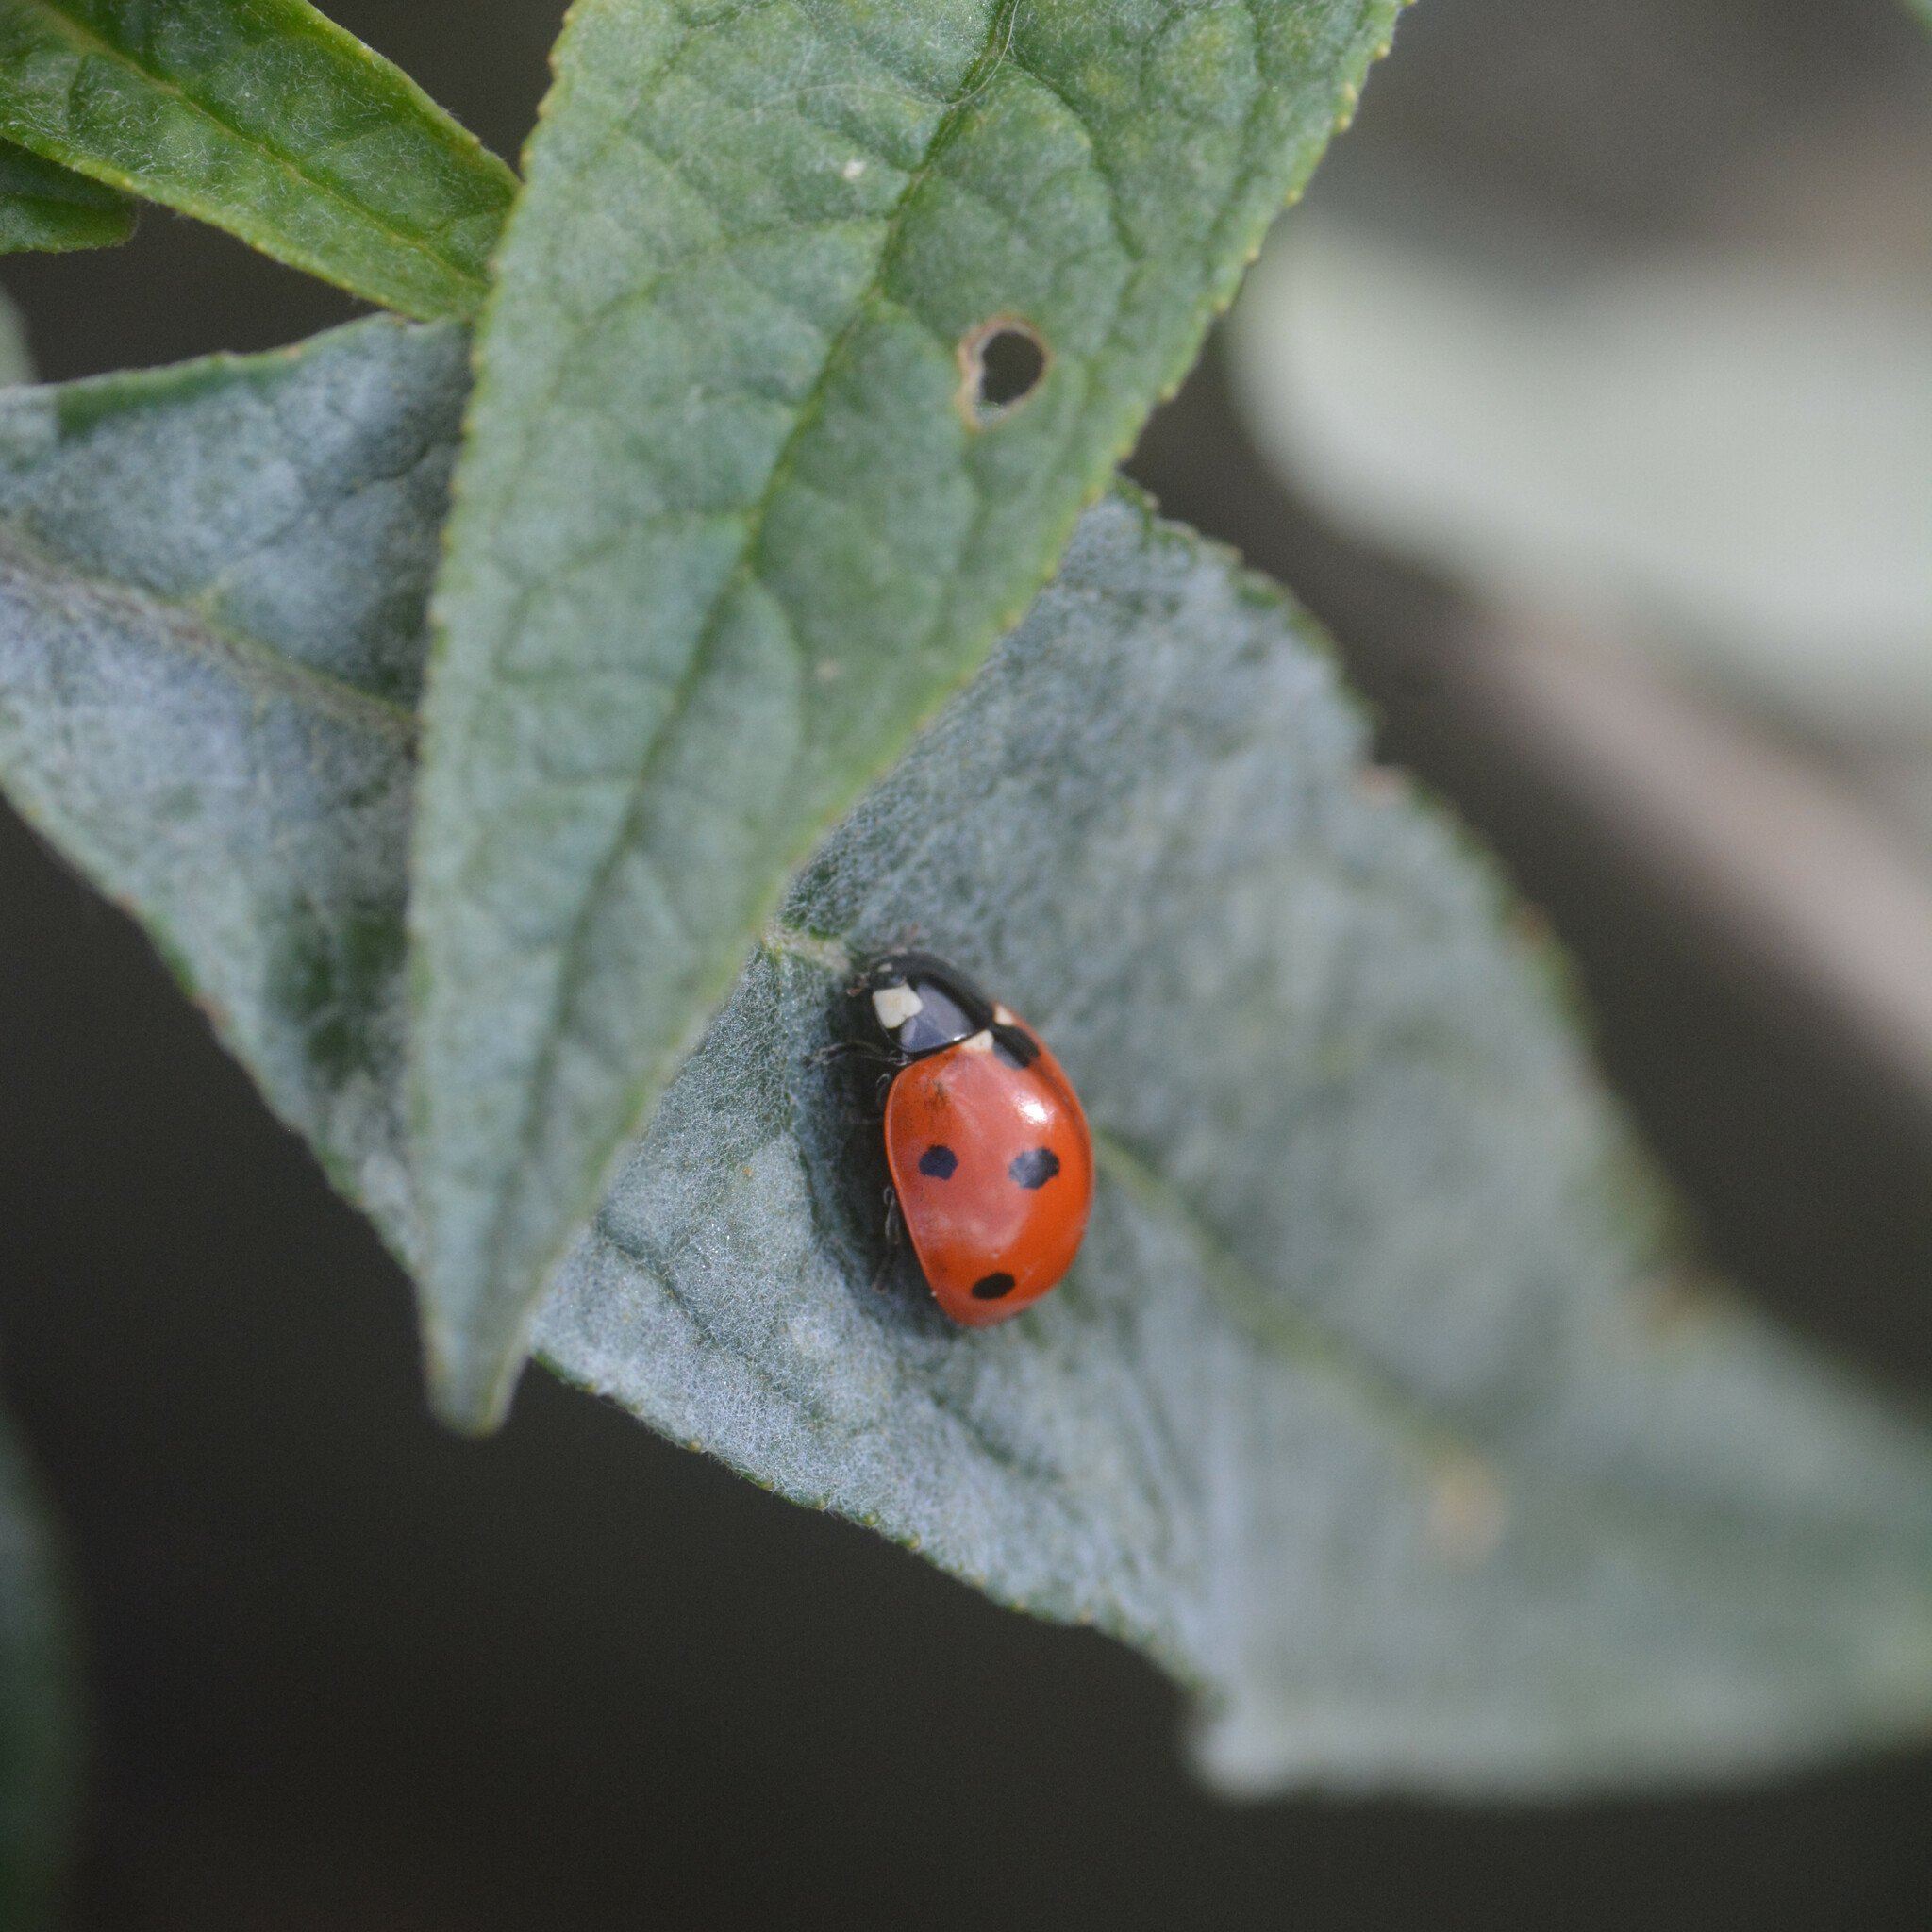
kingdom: Animalia
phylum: Arthropoda
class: Insecta
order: Coleoptera
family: Coccinellidae
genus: Coccinella
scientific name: Coccinella septempunctata
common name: Sevenspotted lady beetle
